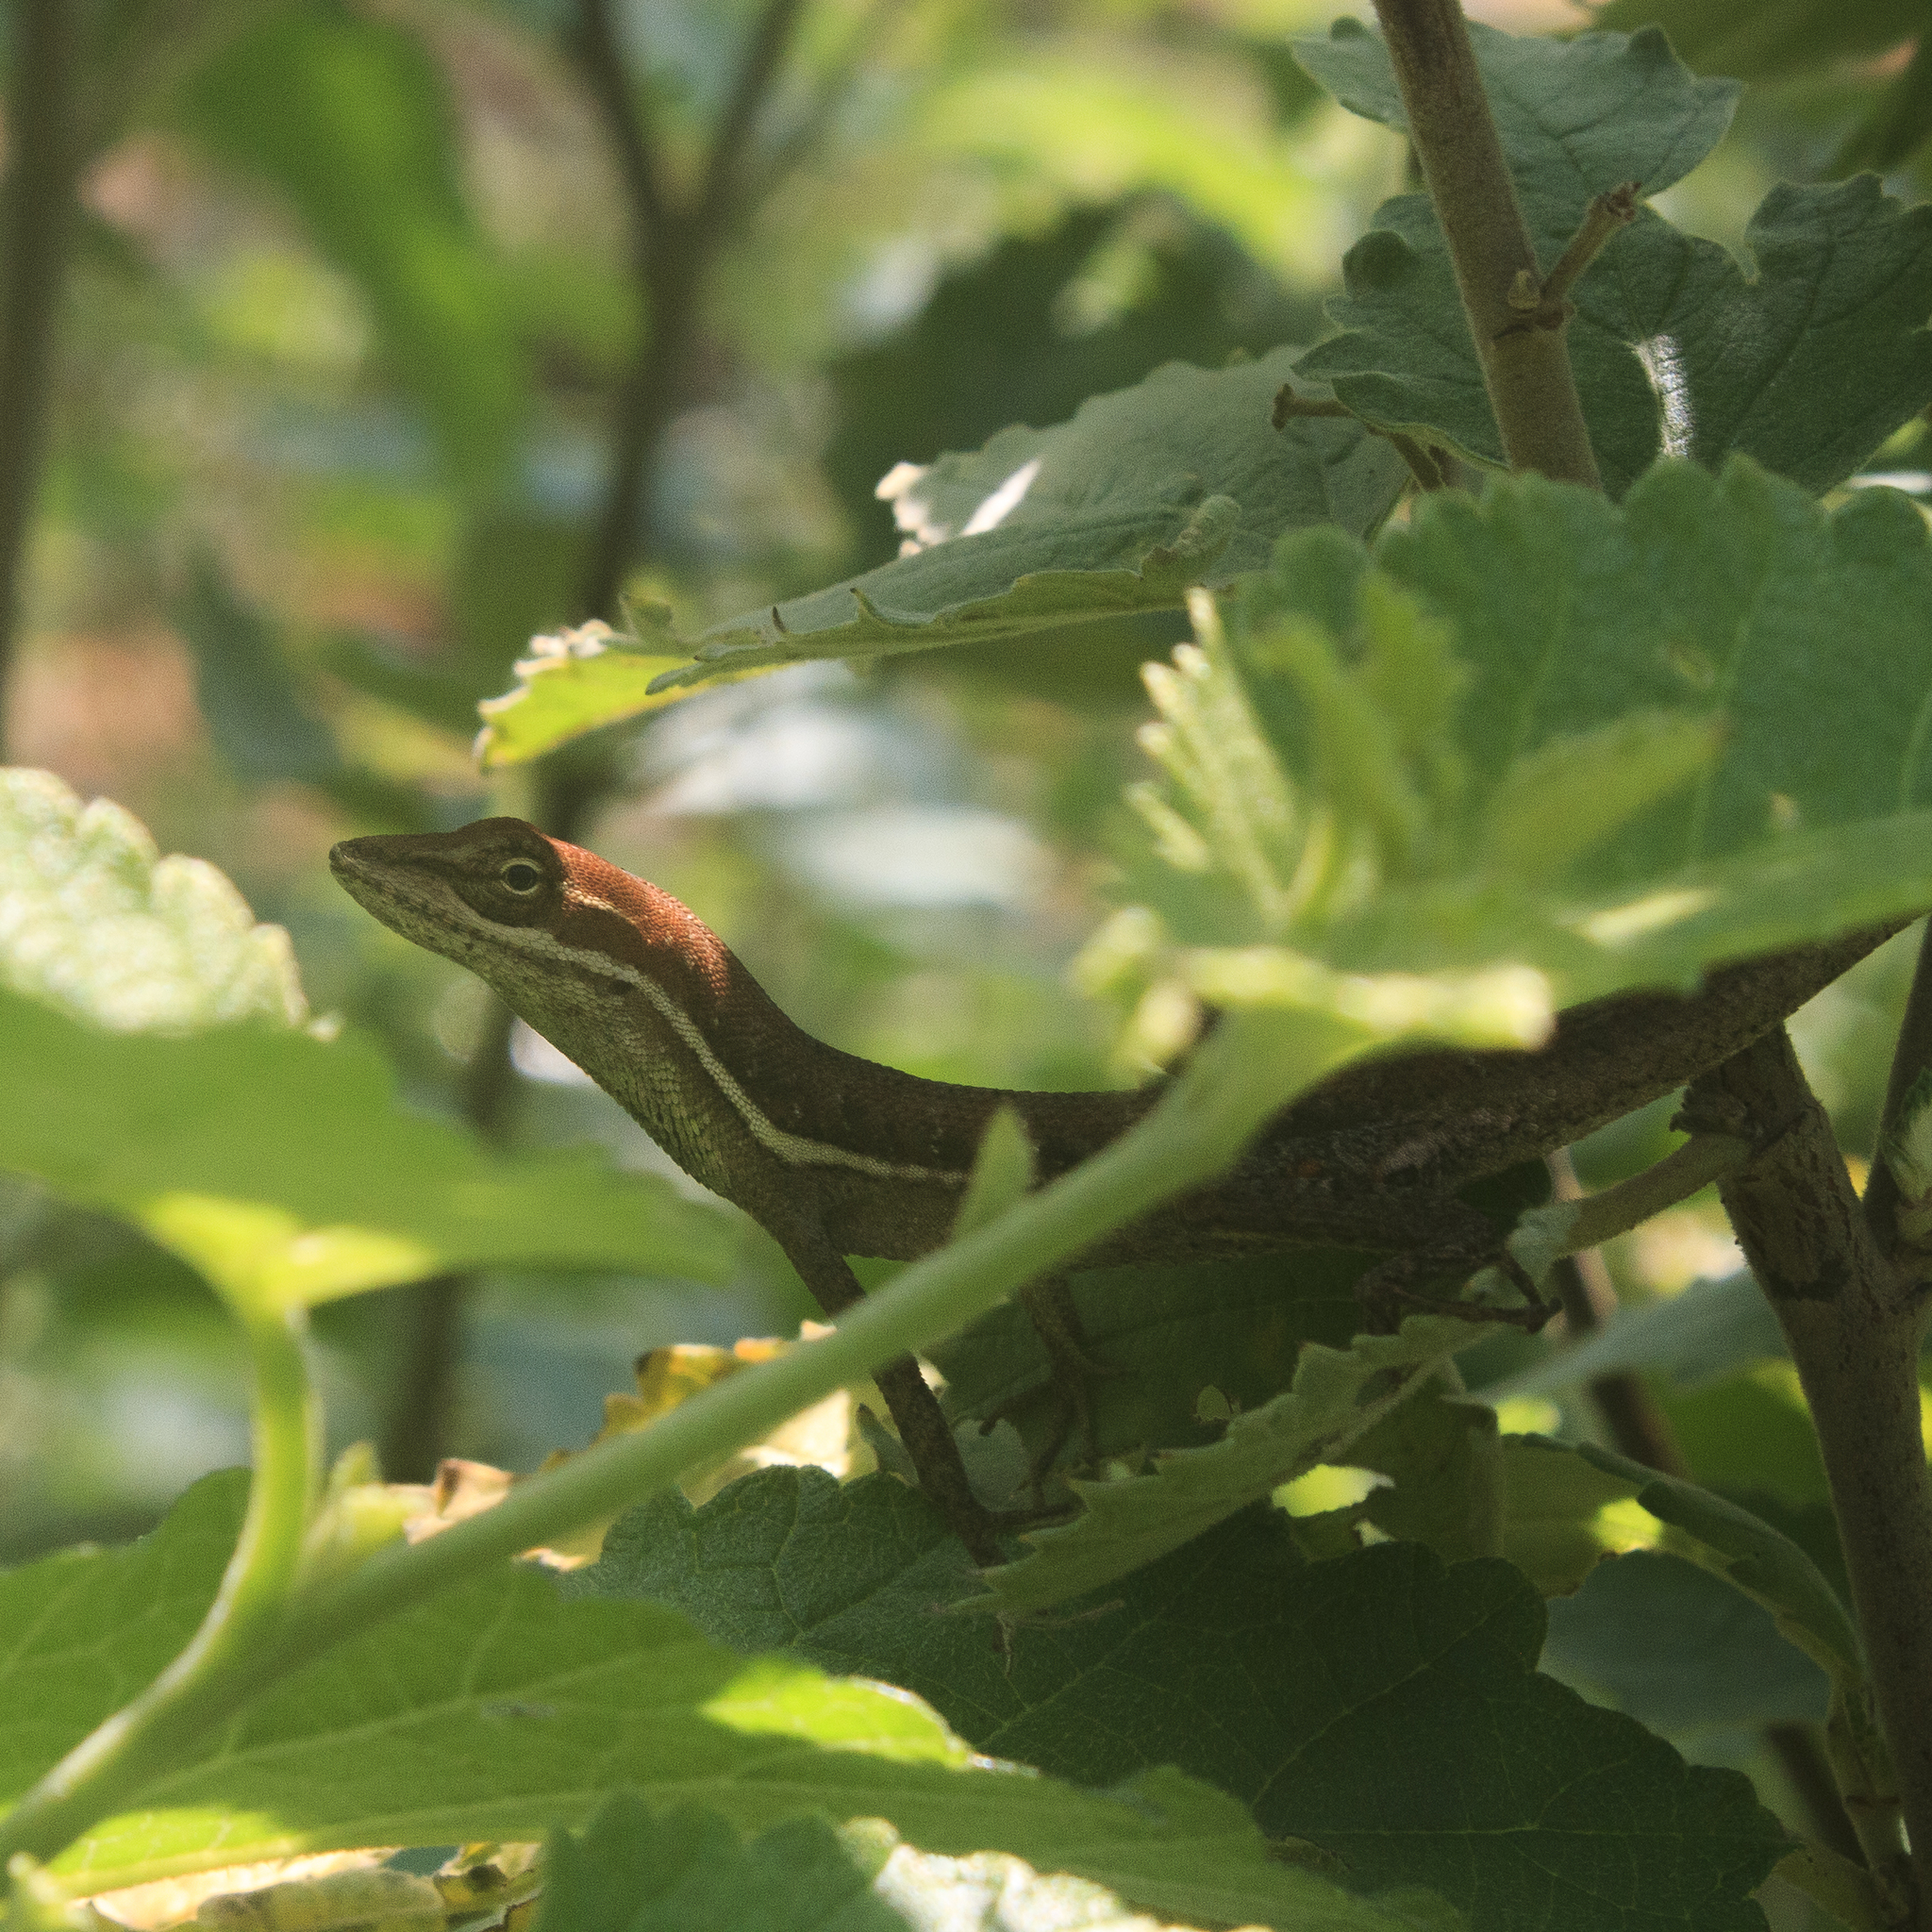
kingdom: Animalia
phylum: Chordata
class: Squamata
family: Dactyloidae
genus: Anolis
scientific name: Anolis auratus
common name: Grass anole
